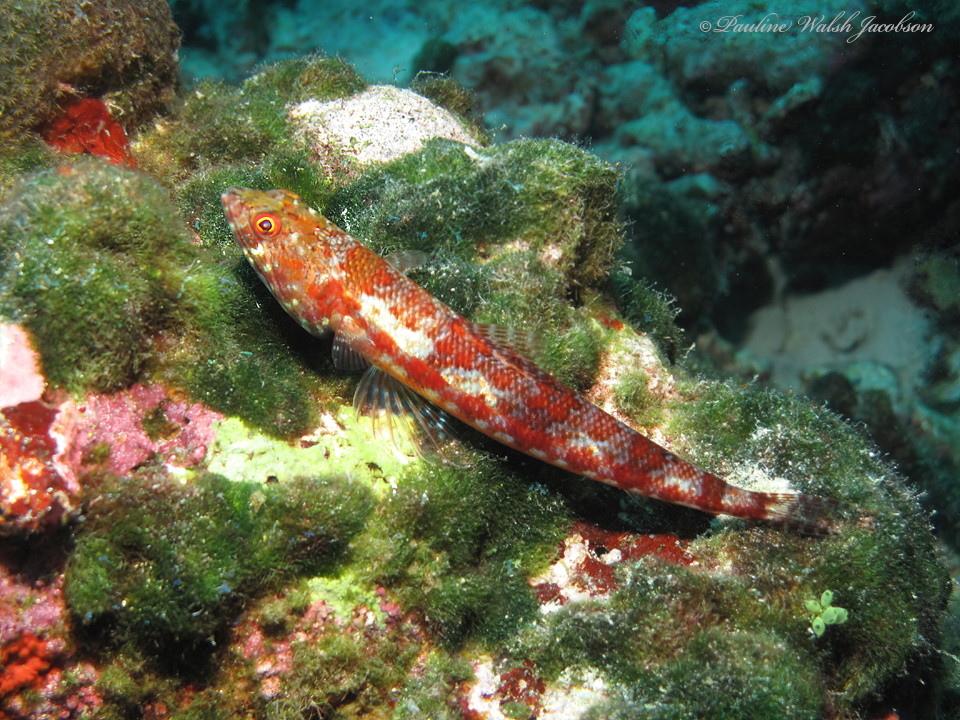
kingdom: Animalia
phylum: Chordata
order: Aulopiformes
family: Synodontidae
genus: Synodus
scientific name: Synodus variegatus
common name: Variegated lizardfish
